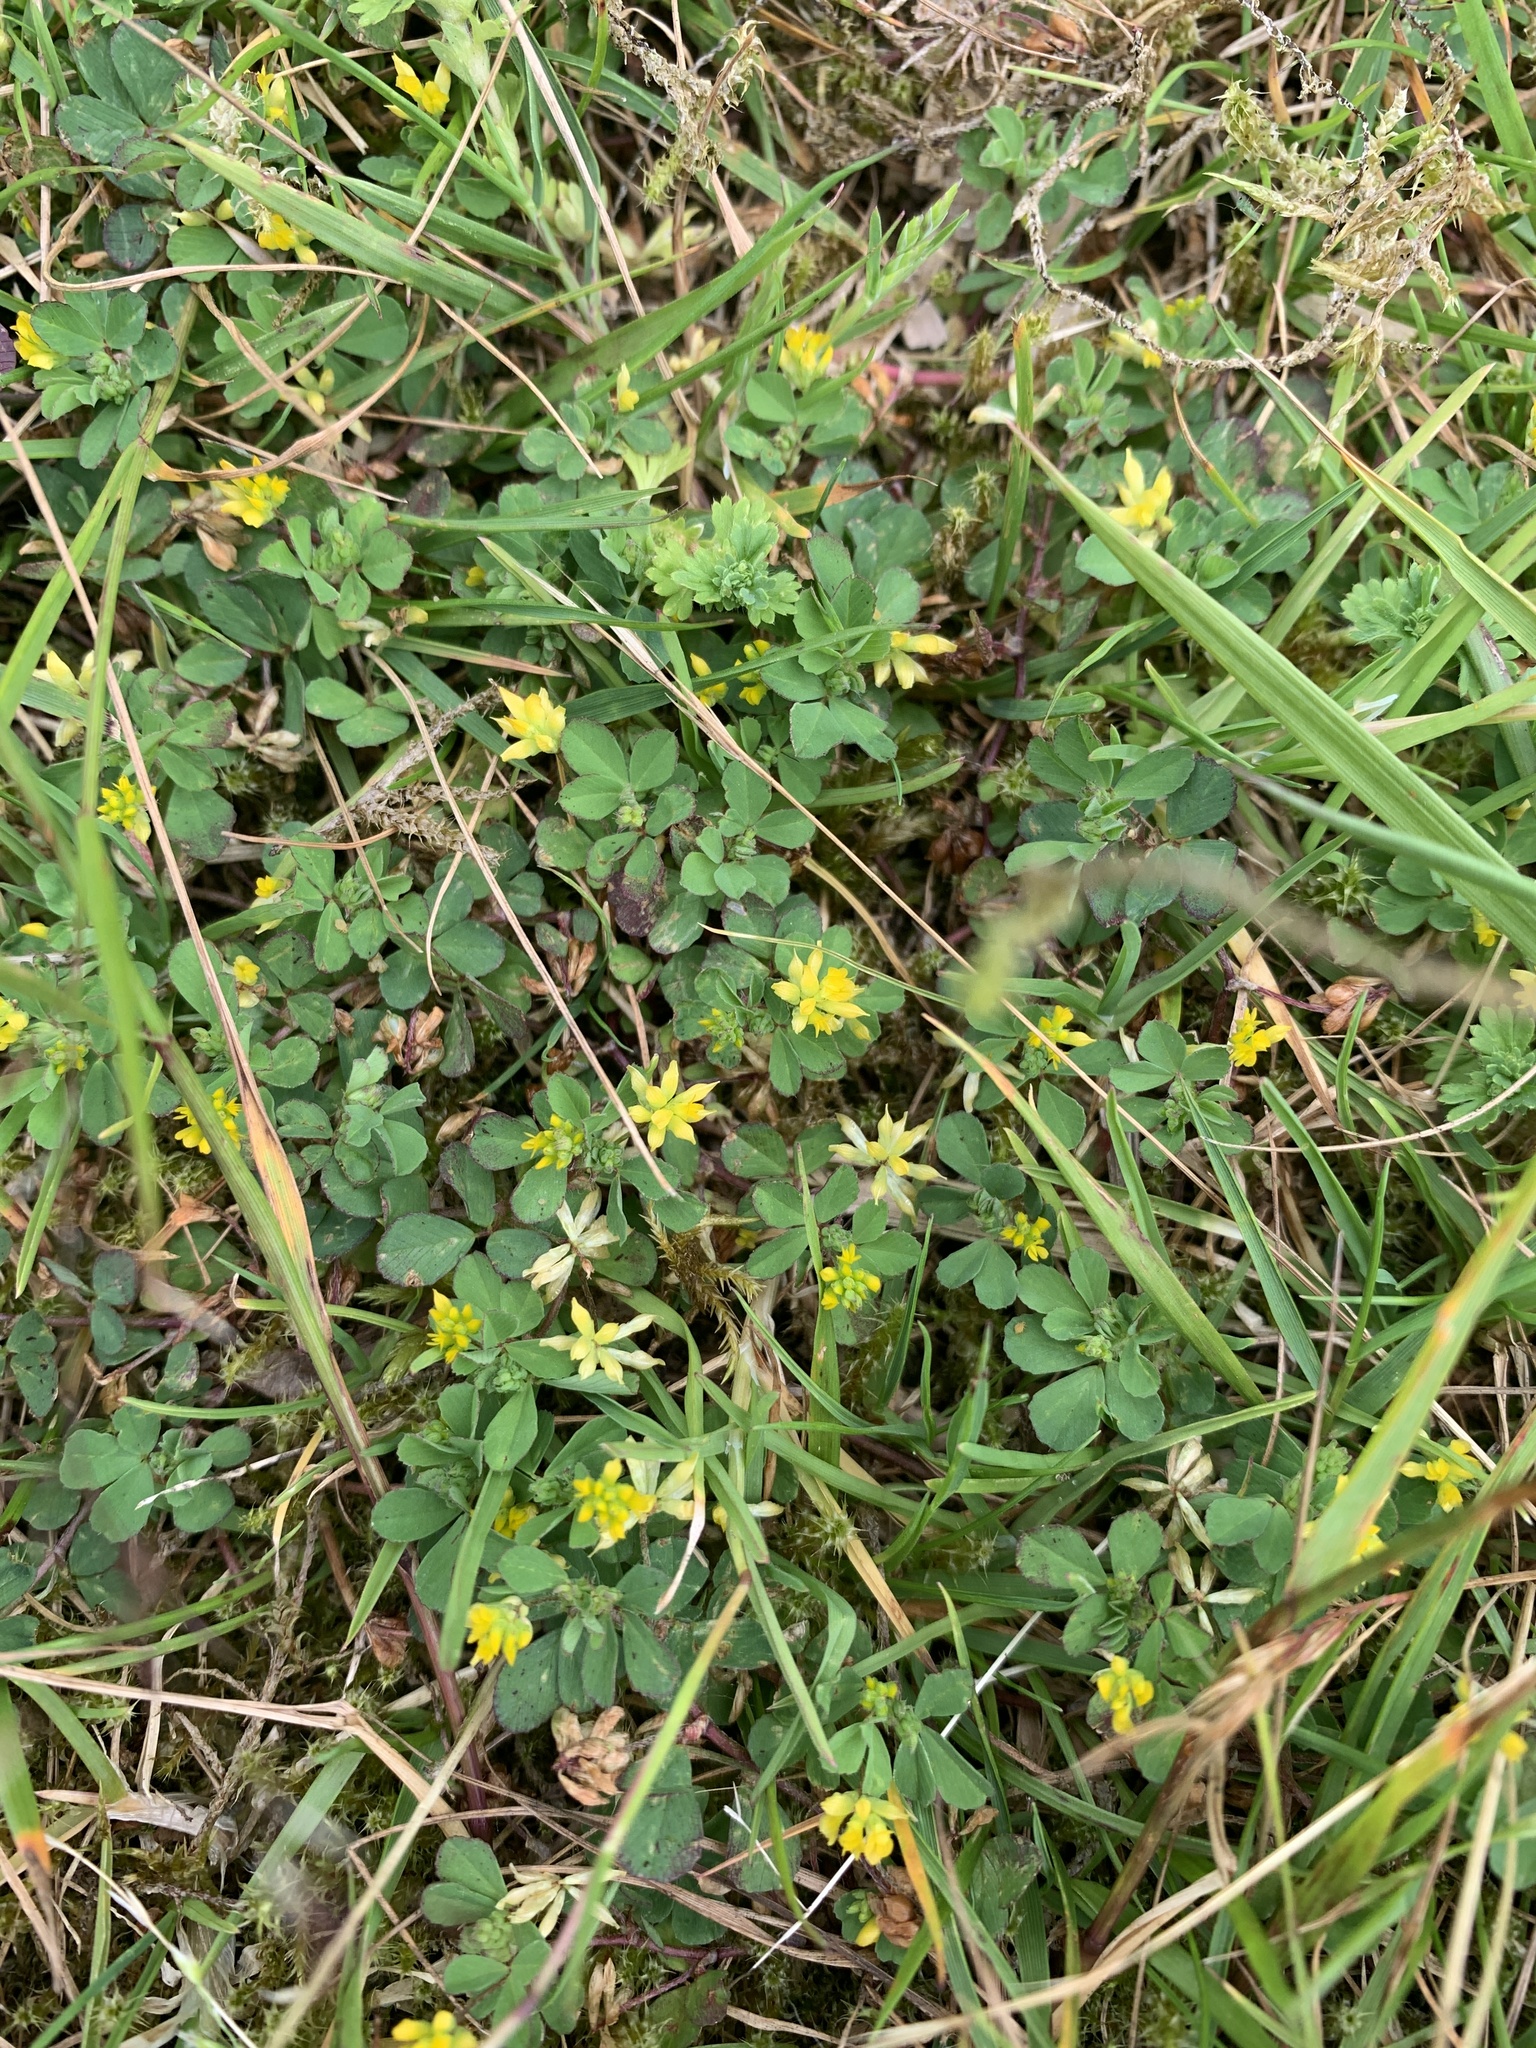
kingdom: Plantae
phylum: Tracheophyta
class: Magnoliopsida
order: Fabales
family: Fabaceae
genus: Trifolium
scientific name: Trifolium dubium
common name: Suckling clover
